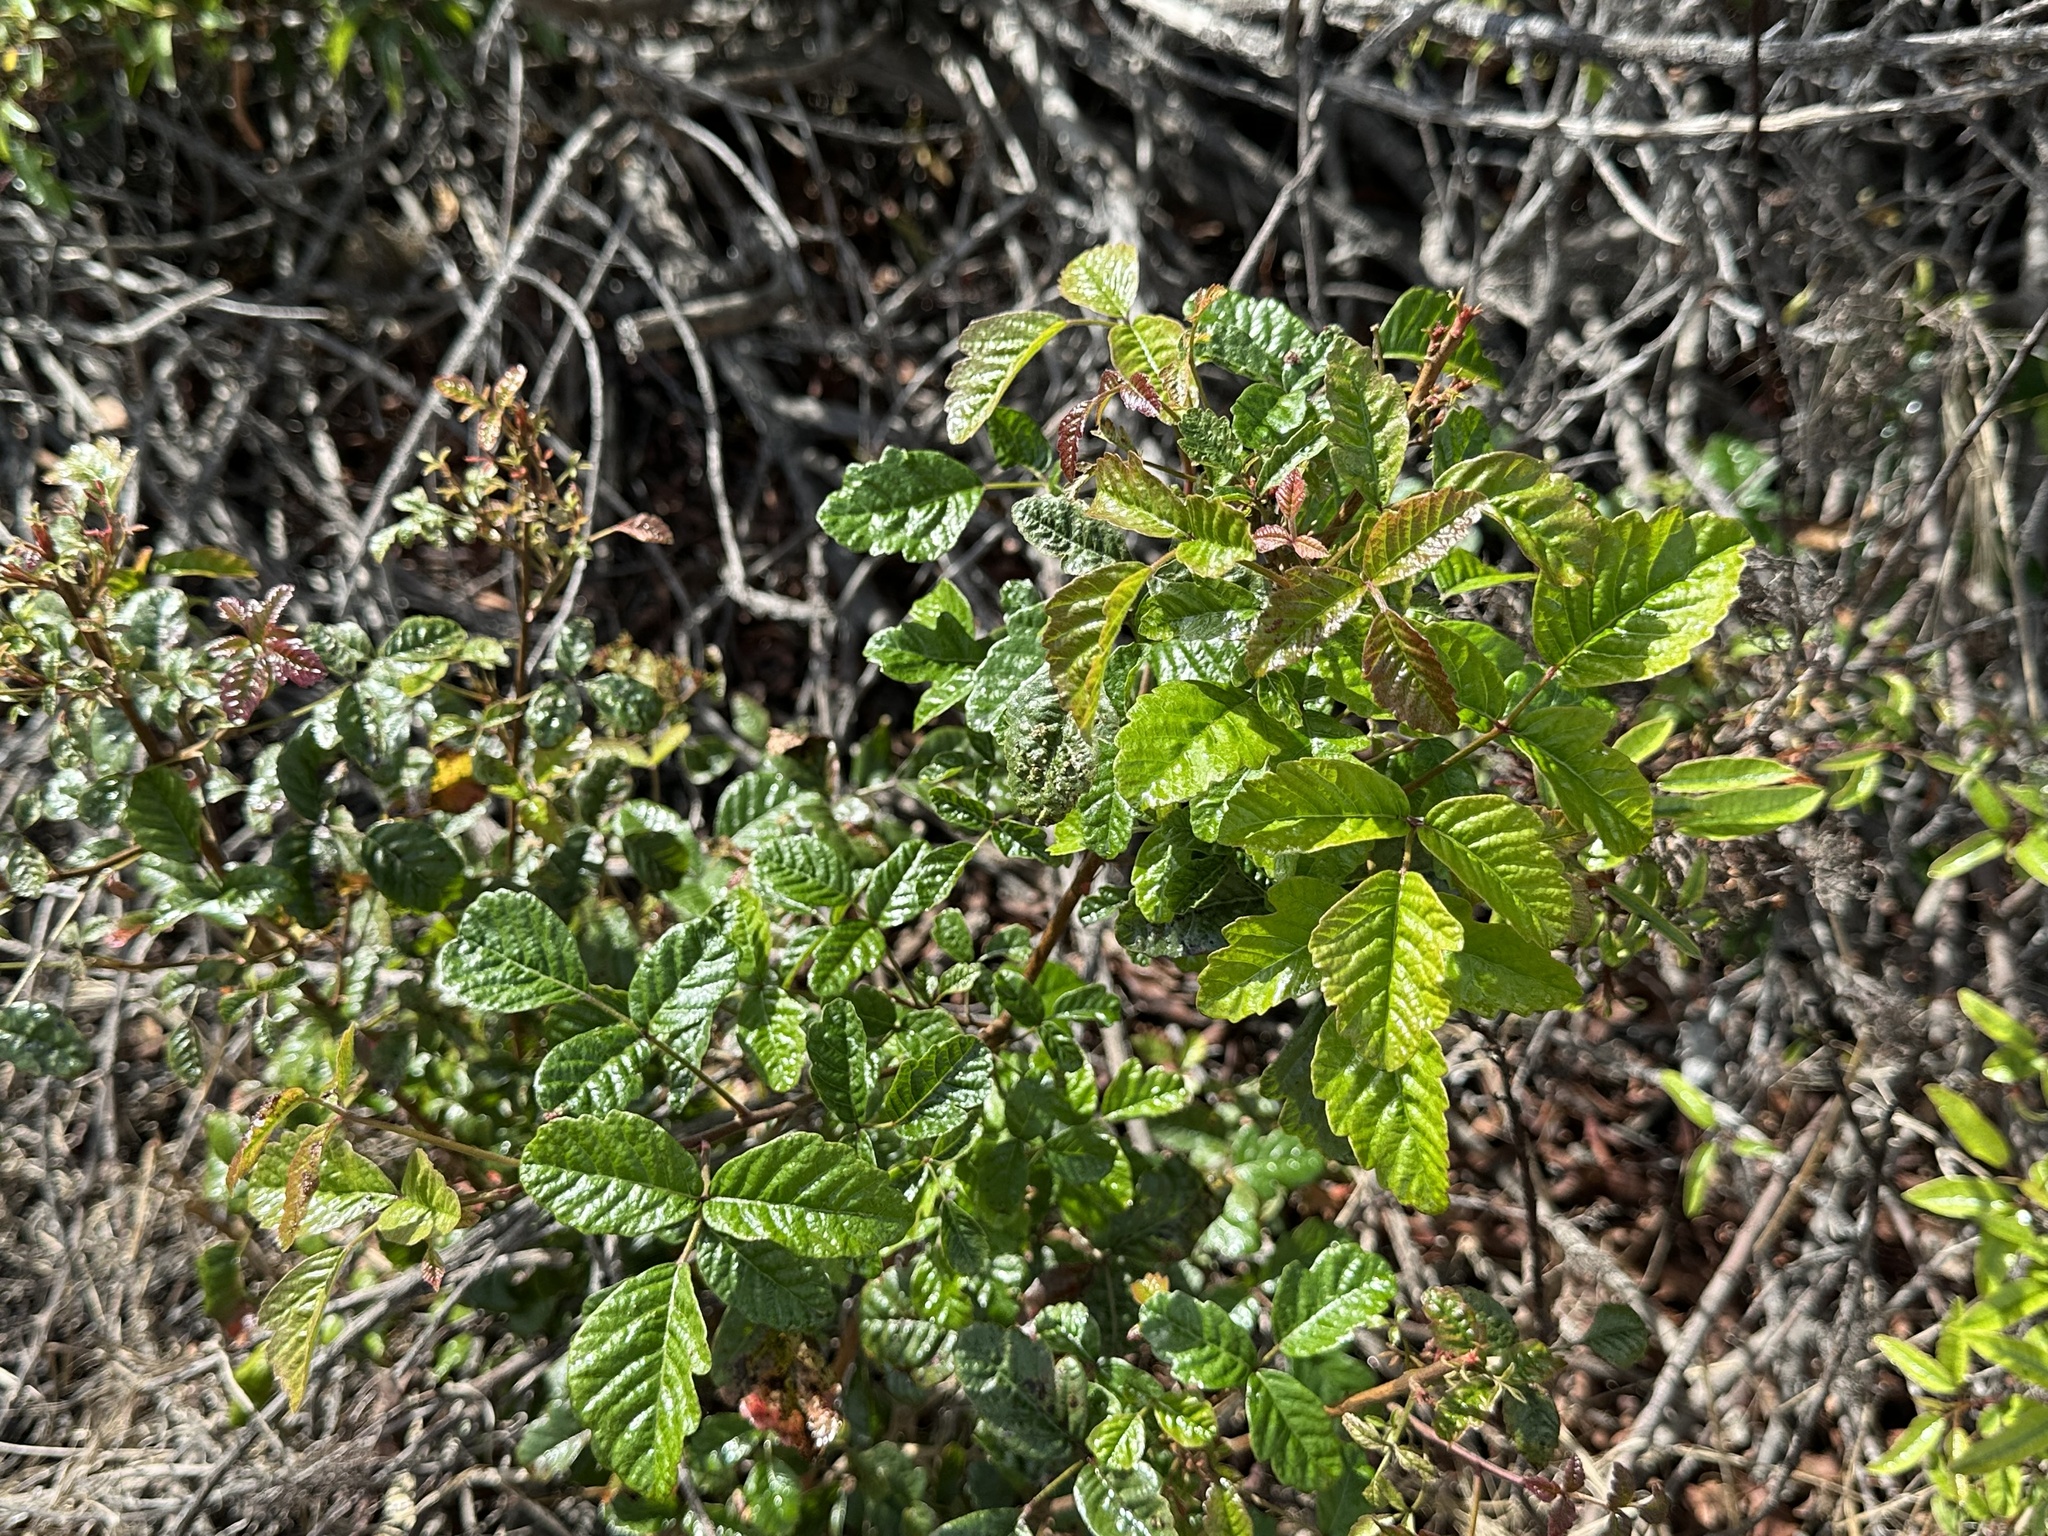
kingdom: Plantae
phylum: Tracheophyta
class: Magnoliopsida
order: Sapindales
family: Anacardiaceae
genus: Toxicodendron
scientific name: Toxicodendron diversilobum
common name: Pacific poison-oak
